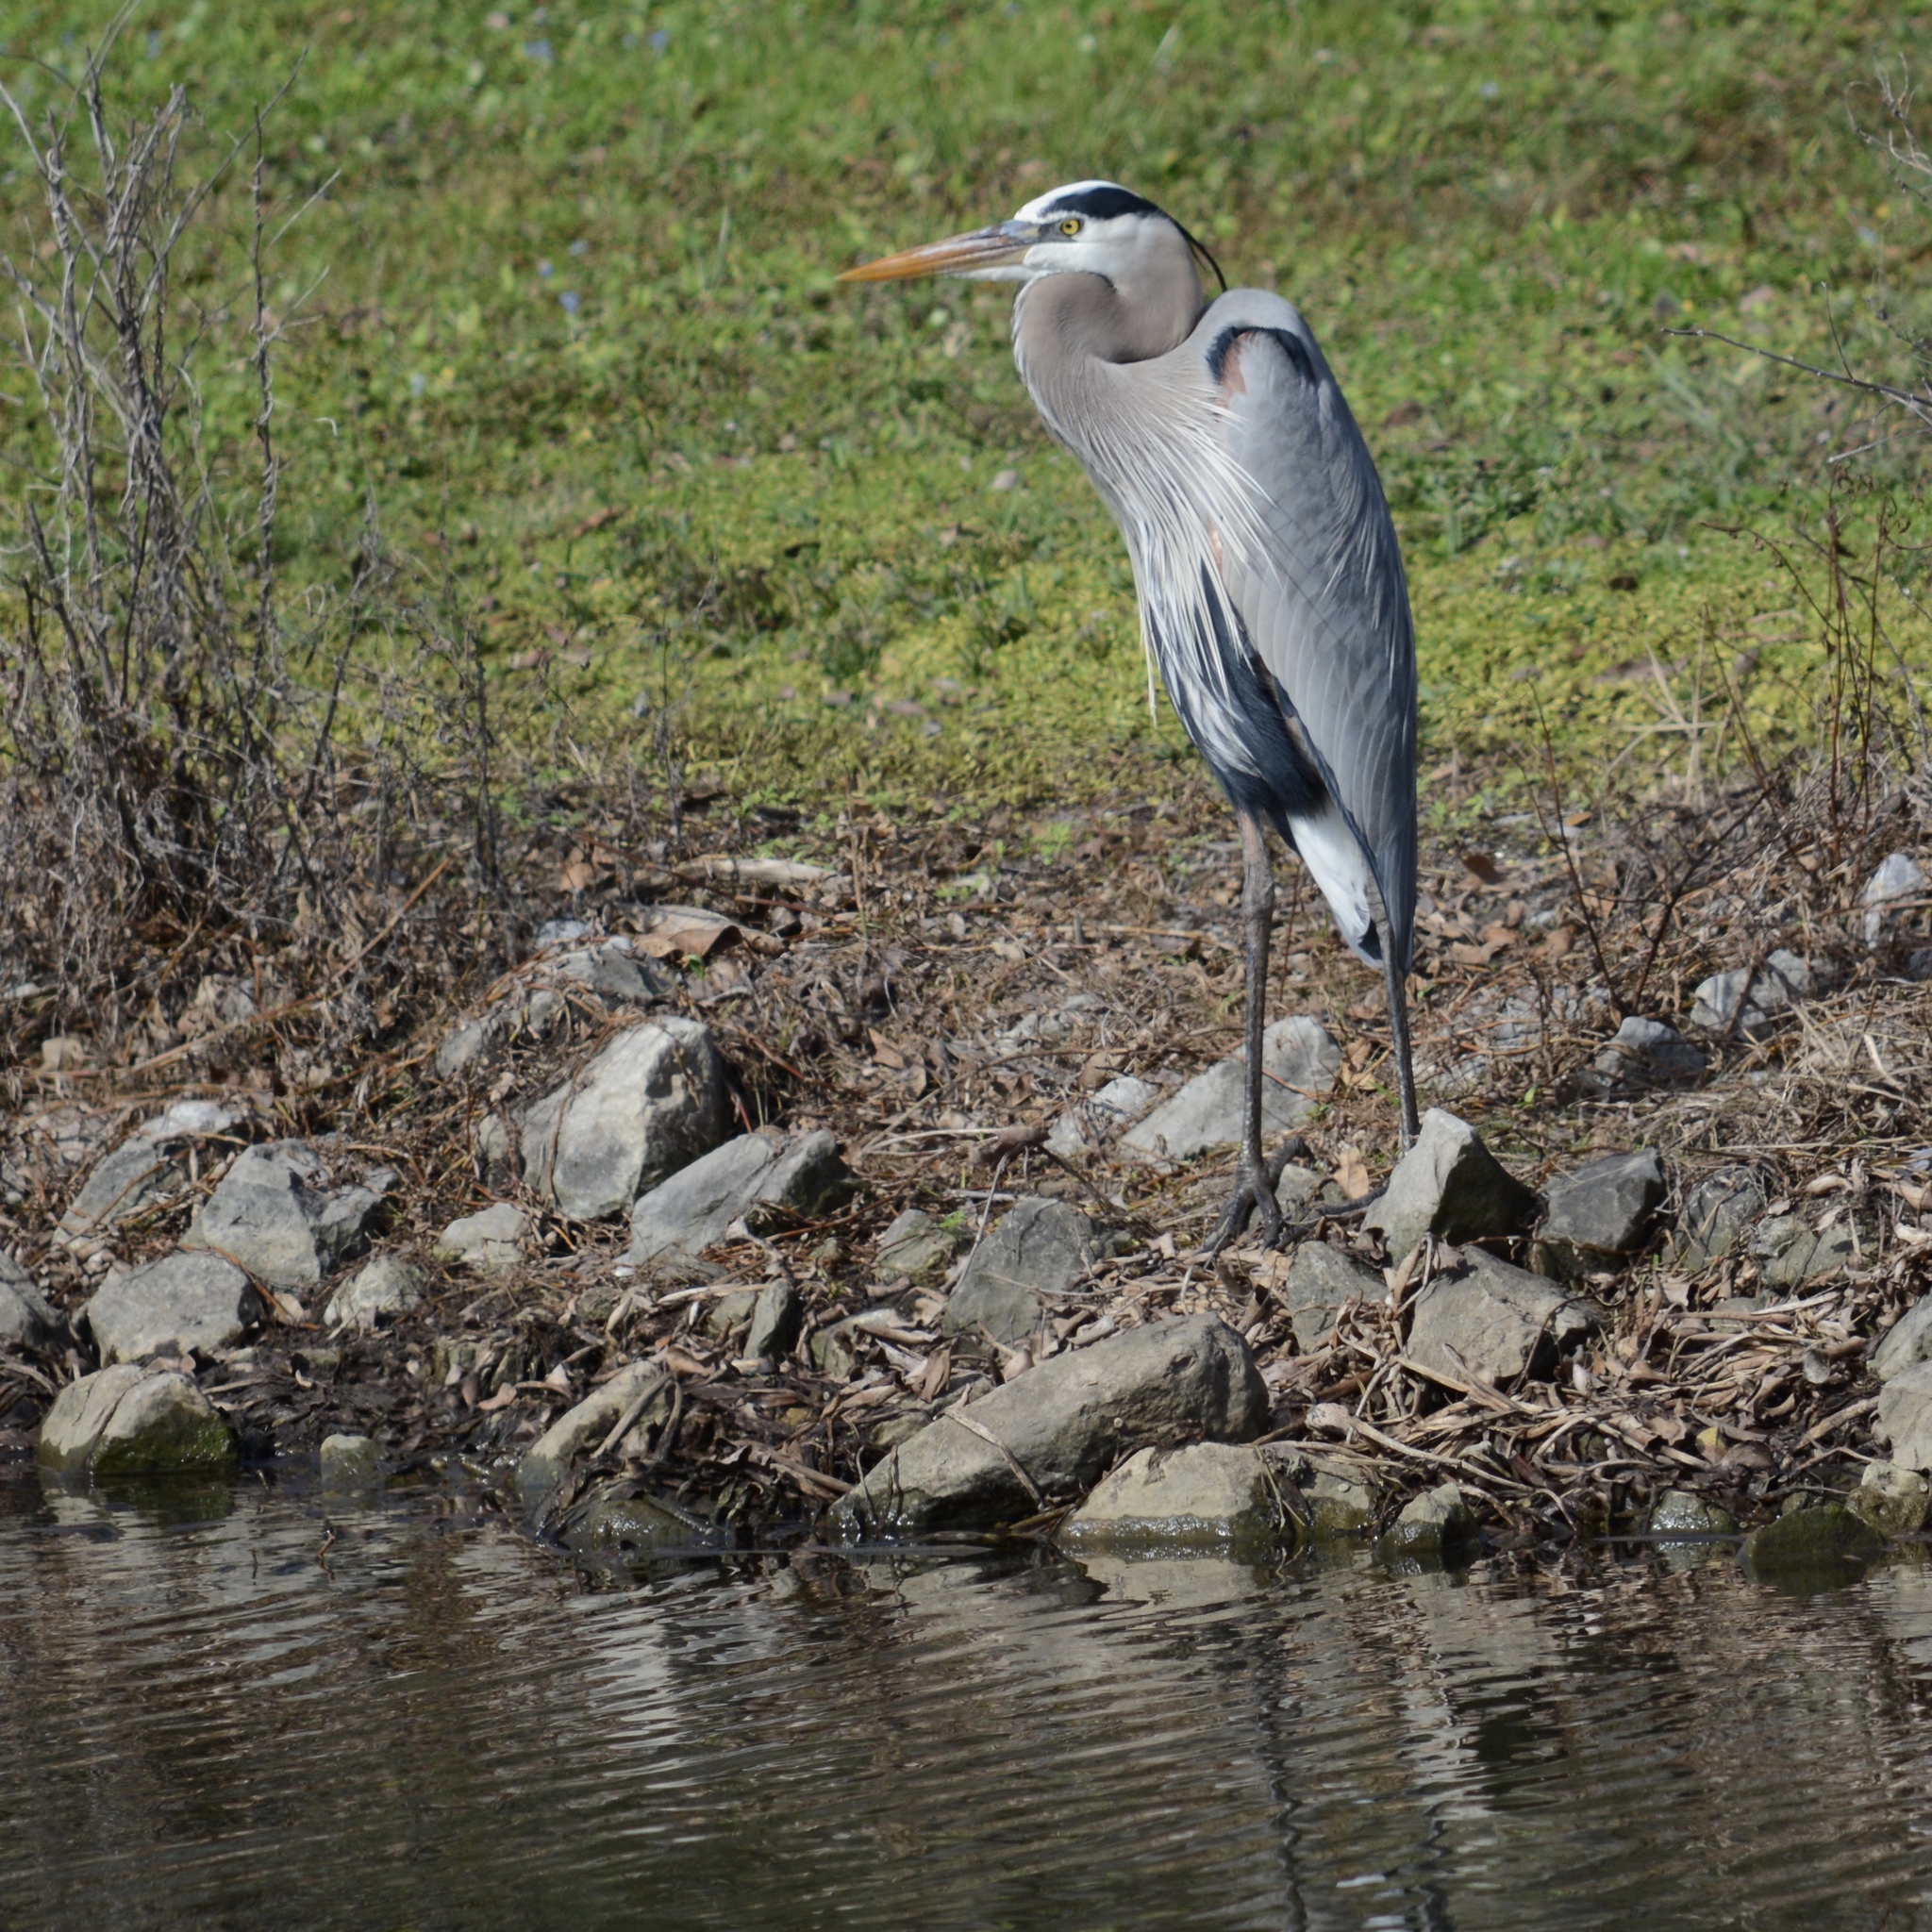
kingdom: Animalia
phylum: Chordata
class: Aves
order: Pelecaniformes
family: Ardeidae
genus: Ardea
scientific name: Ardea herodias
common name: Great blue heron
